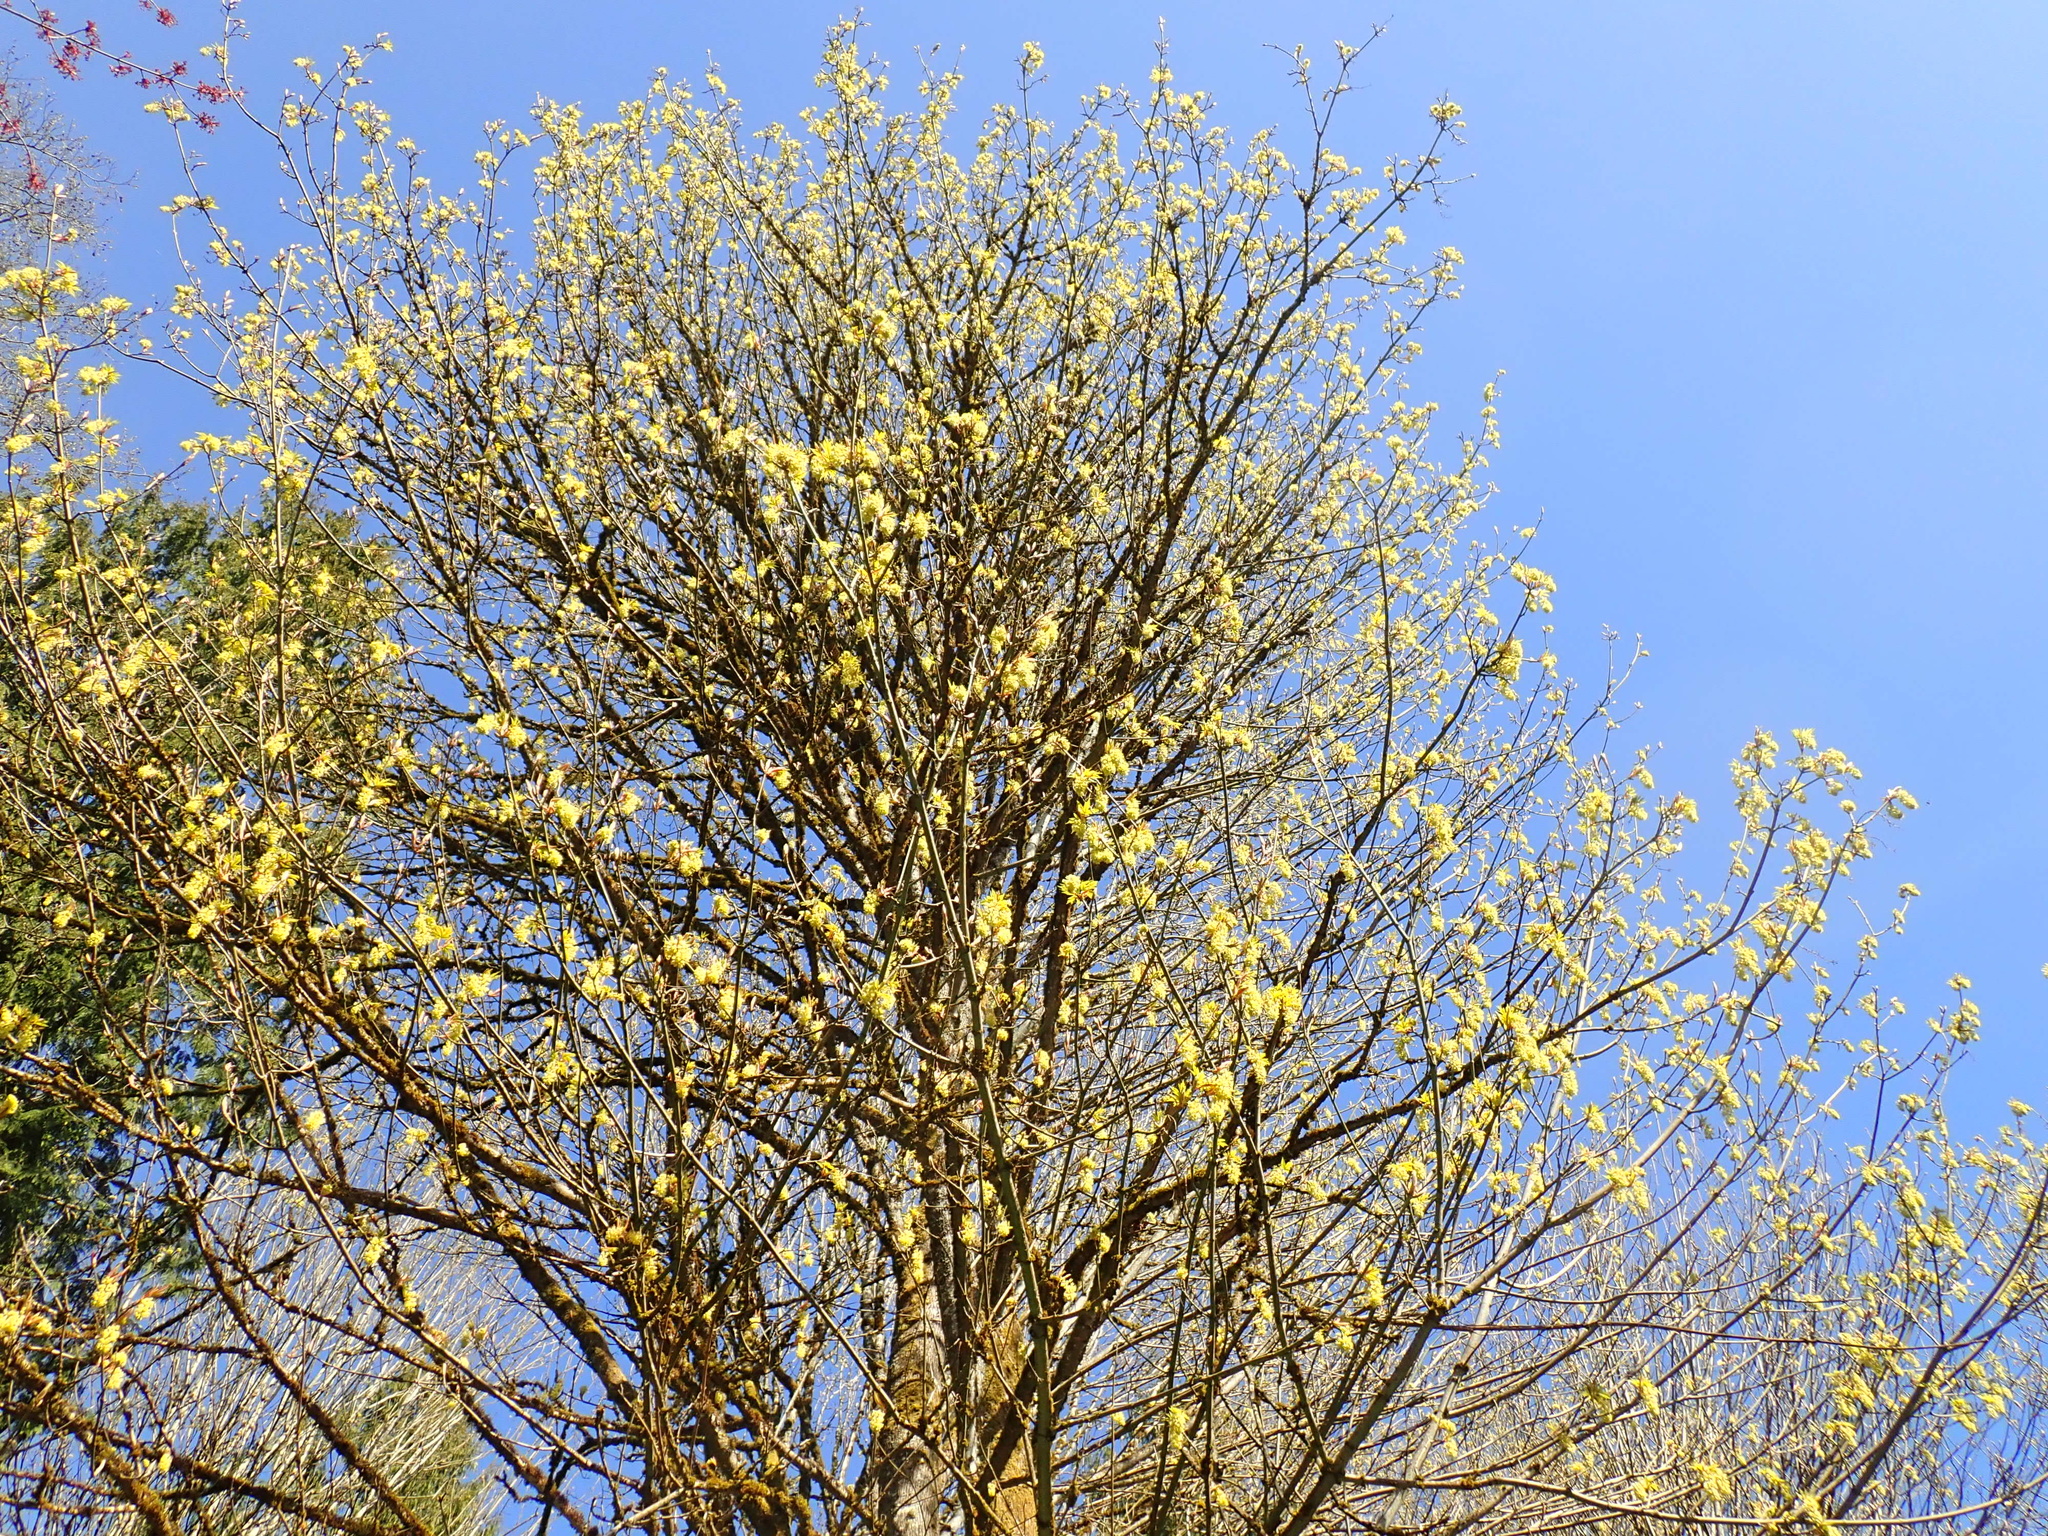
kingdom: Plantae
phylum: Tracheophyta
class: Magnoliopsida
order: Sapindales
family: Sapindaceae
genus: Acer
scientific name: Acer macrophyllum
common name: Oregon maple
